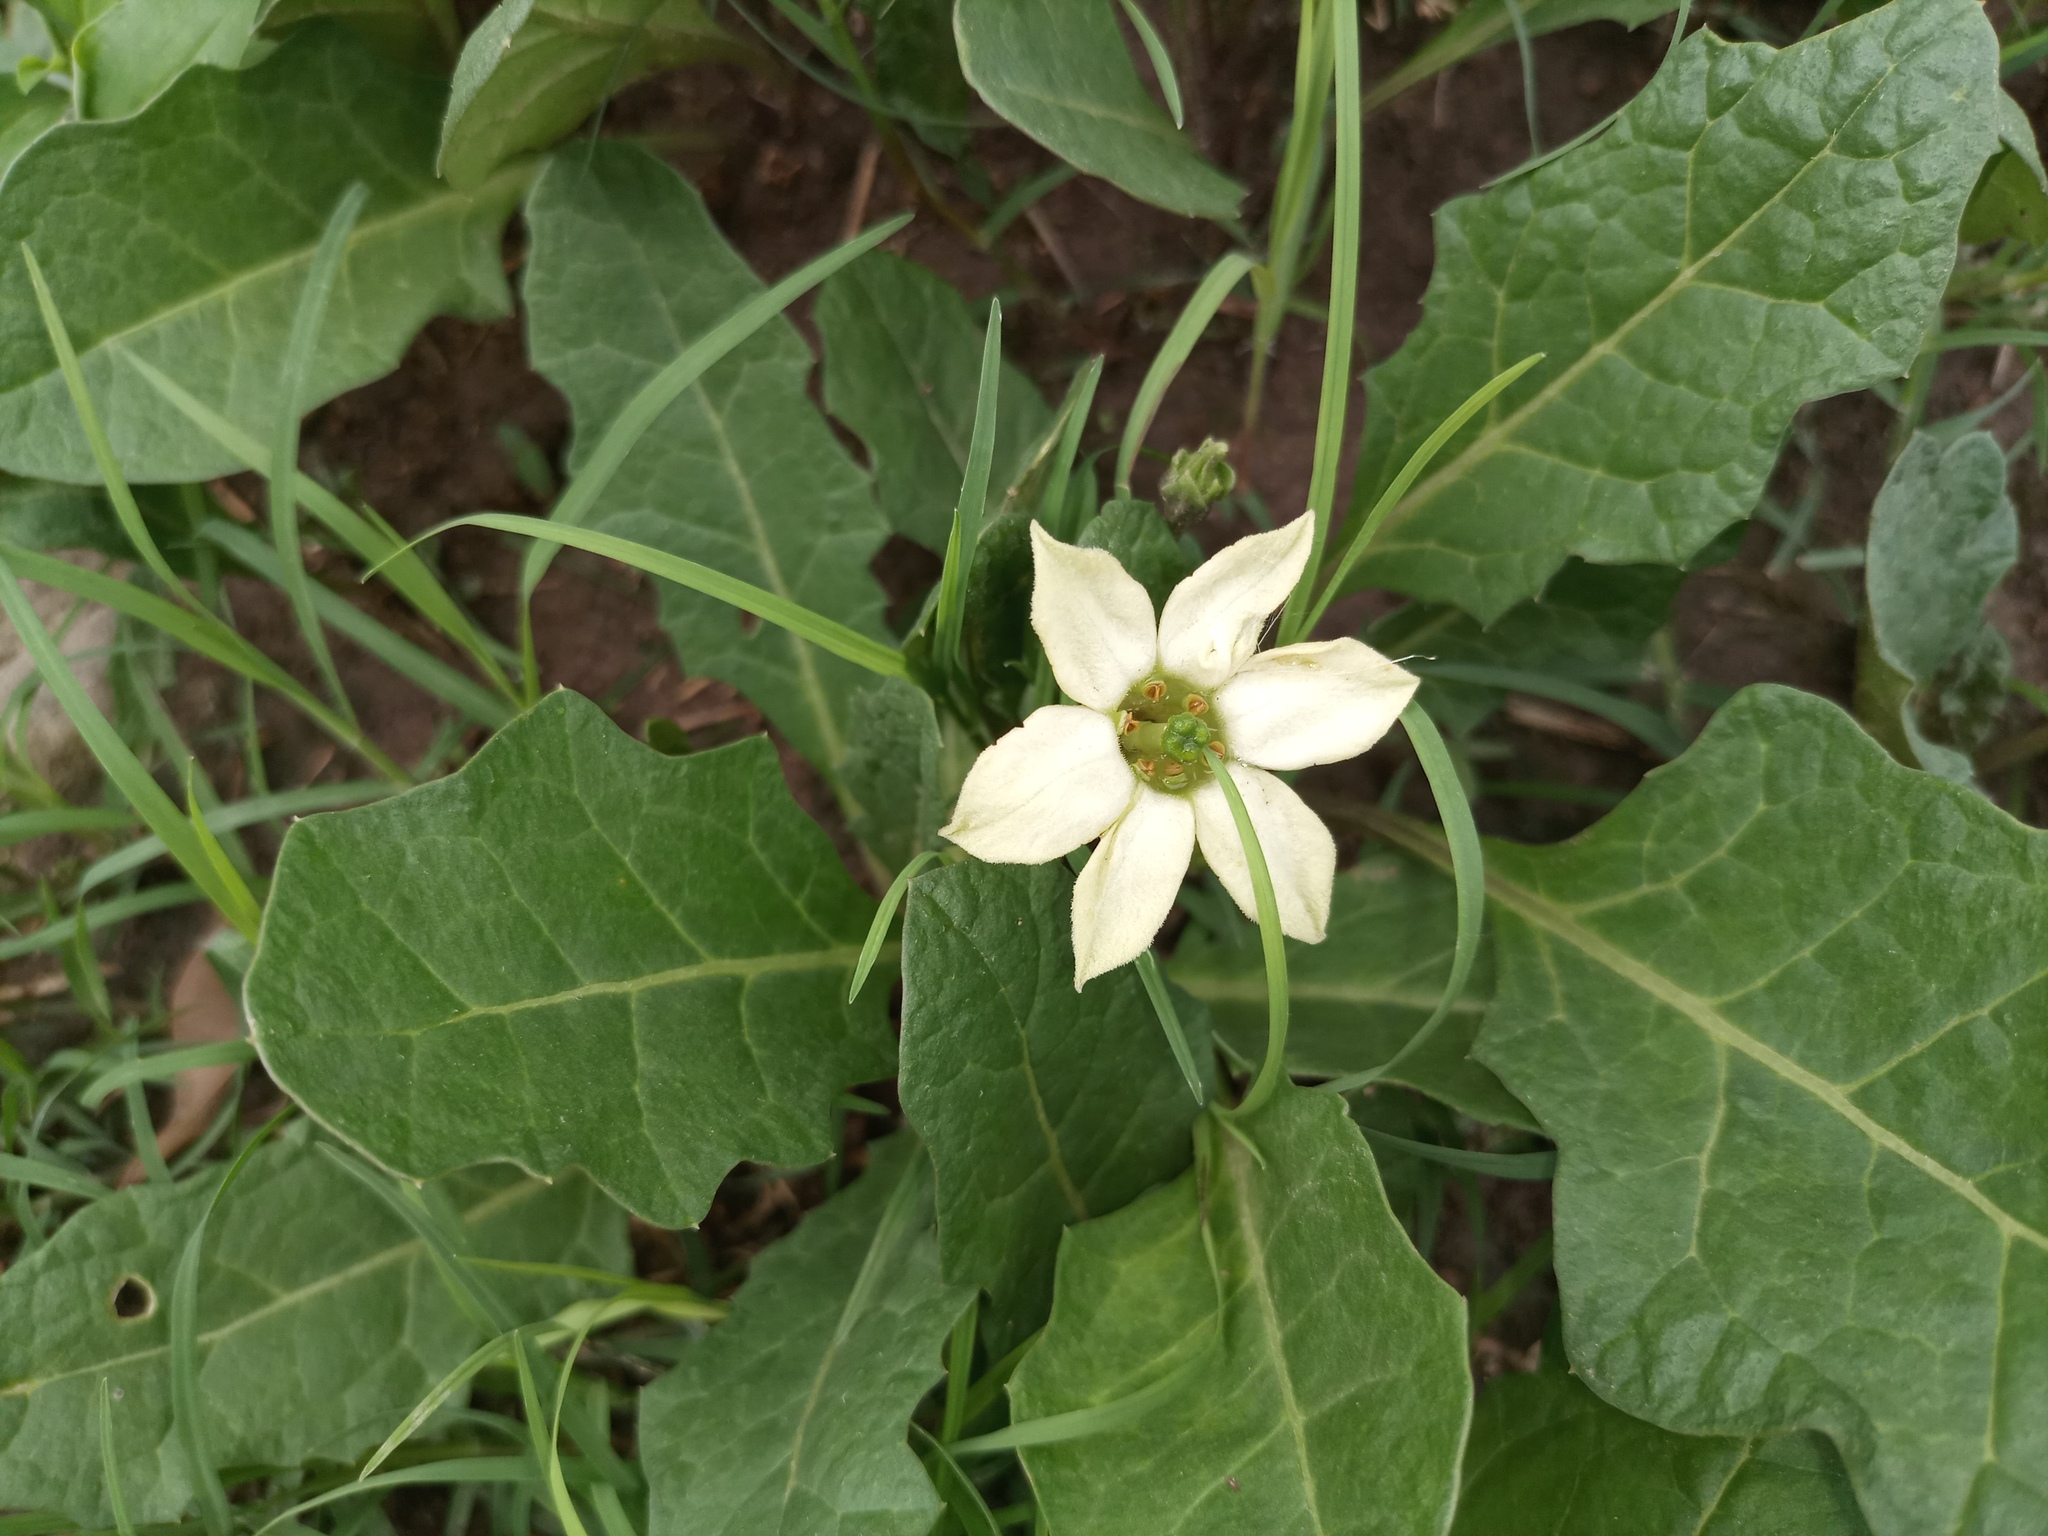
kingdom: Plantae
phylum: Tracheophyta
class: Magnoliopsida
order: Solanales
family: Solanaceae
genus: Jaborosa
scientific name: Jaborosa runcinata
